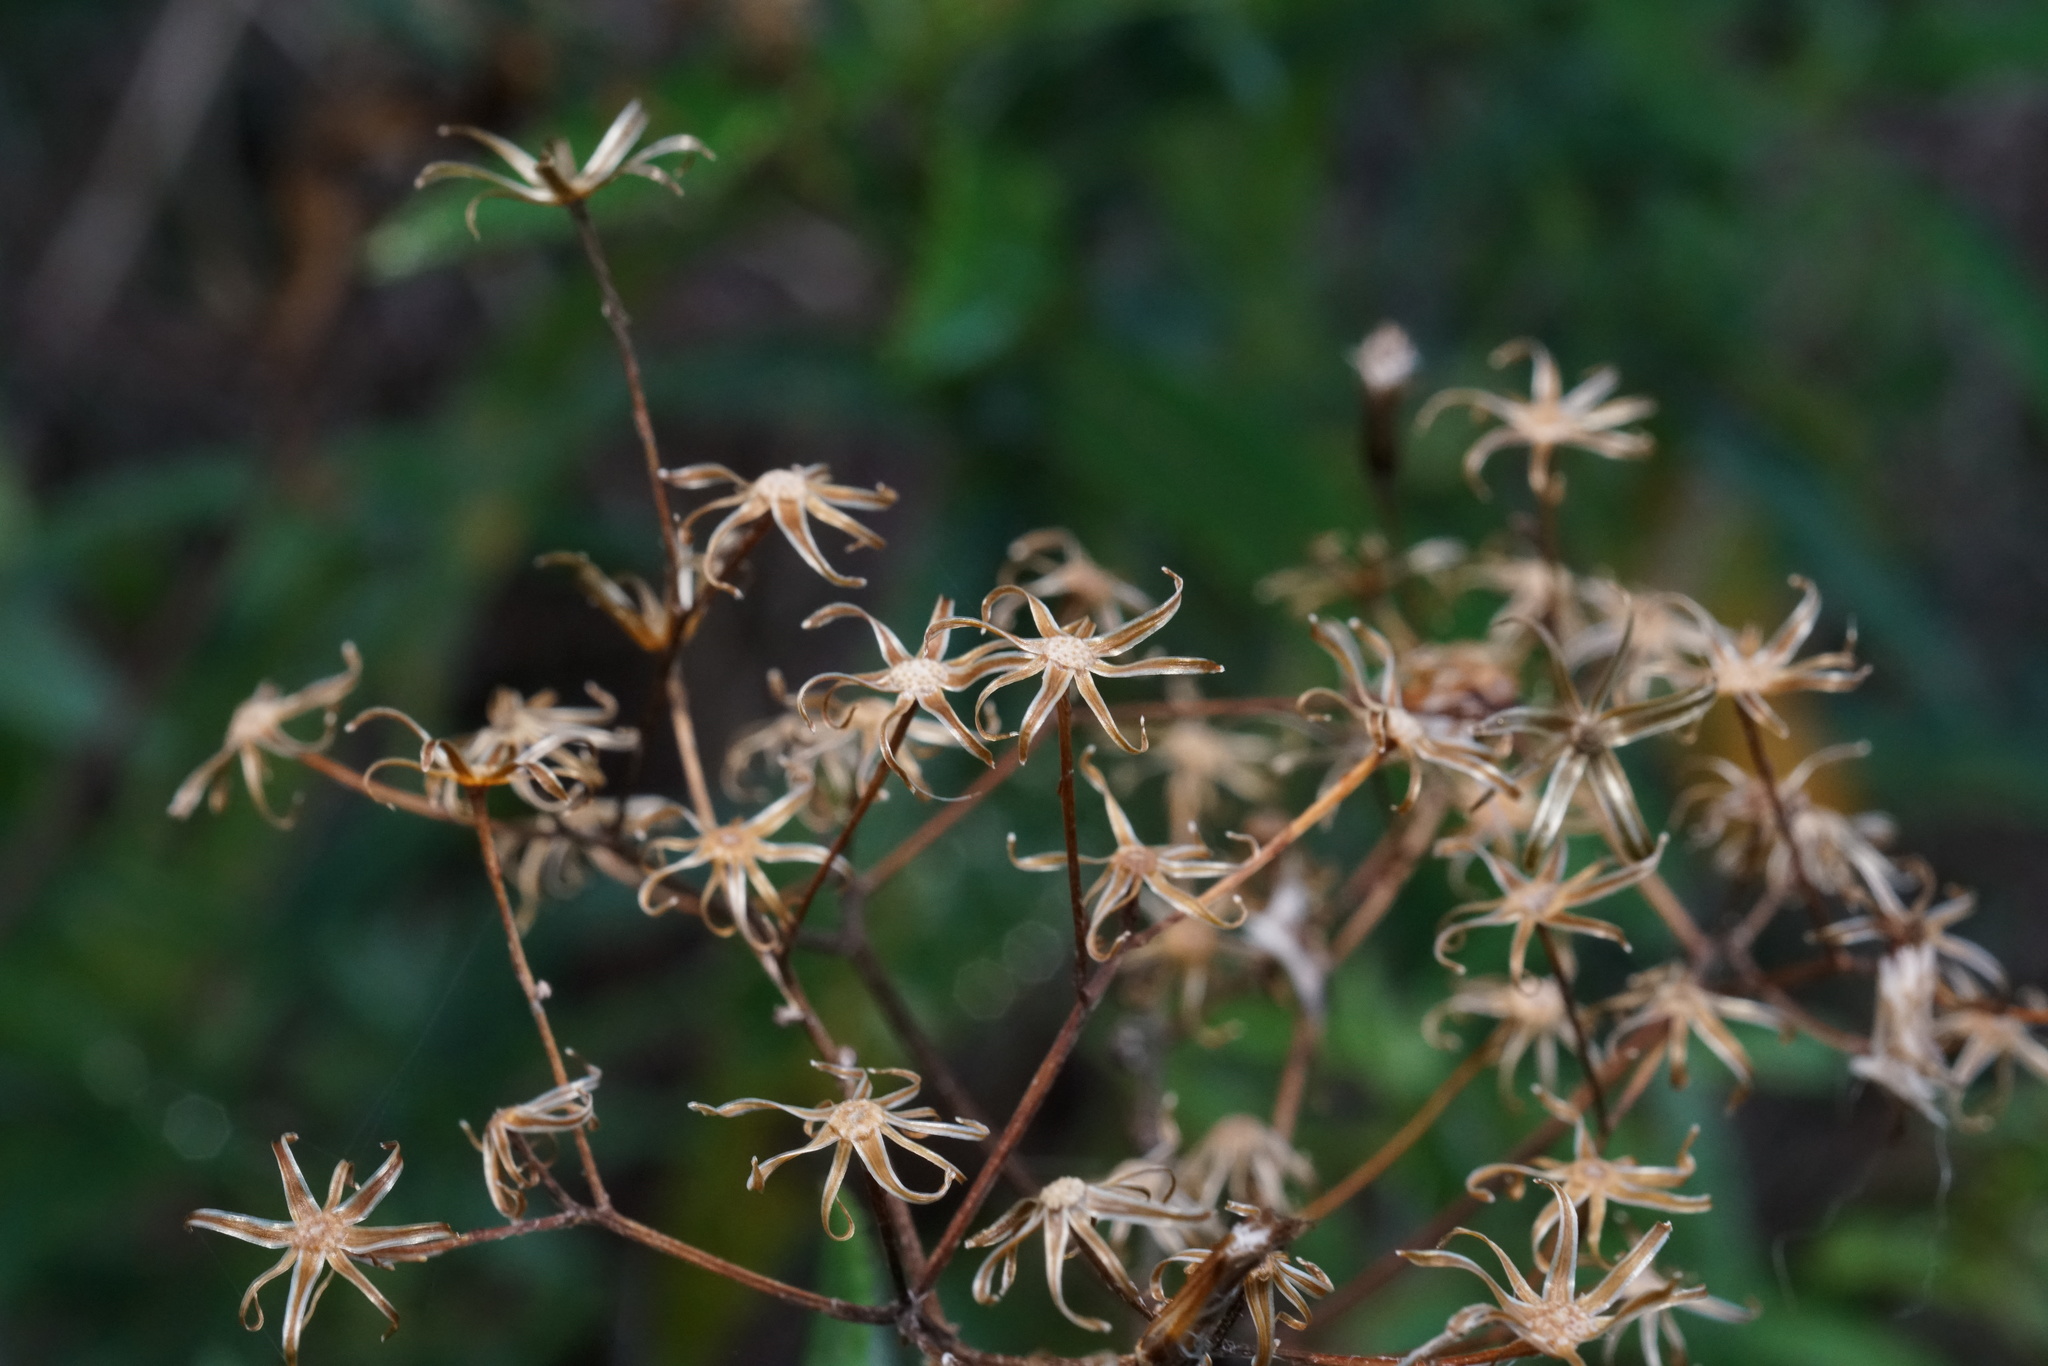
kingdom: Plantae
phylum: Tracheophyta
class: Magnoliopsida
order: Asterales
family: Asteraceae
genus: Senecio
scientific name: Senecio minimus
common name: Toothed fireweed
